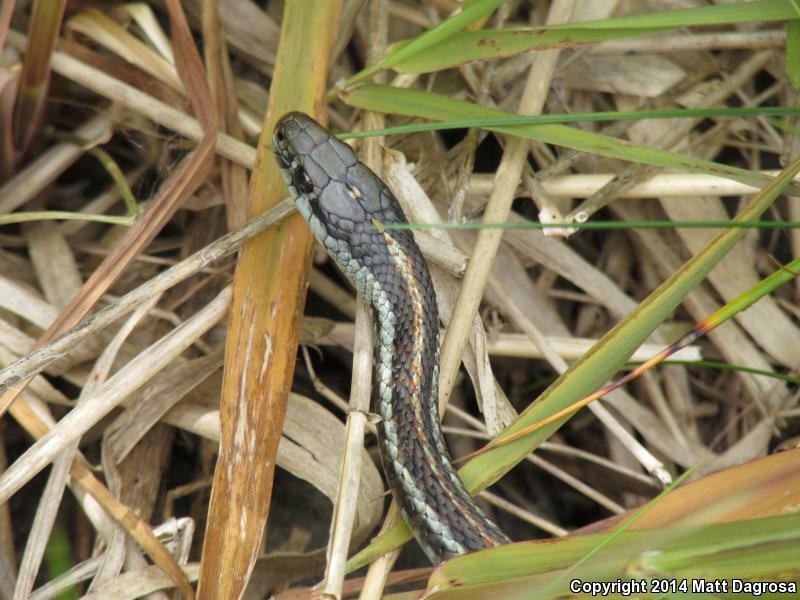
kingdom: Animalia
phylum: Chordata
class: Squamata
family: Colubridae
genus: Thamnophis
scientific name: Thamnophis ordinoides
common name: Northwestern garter snake
